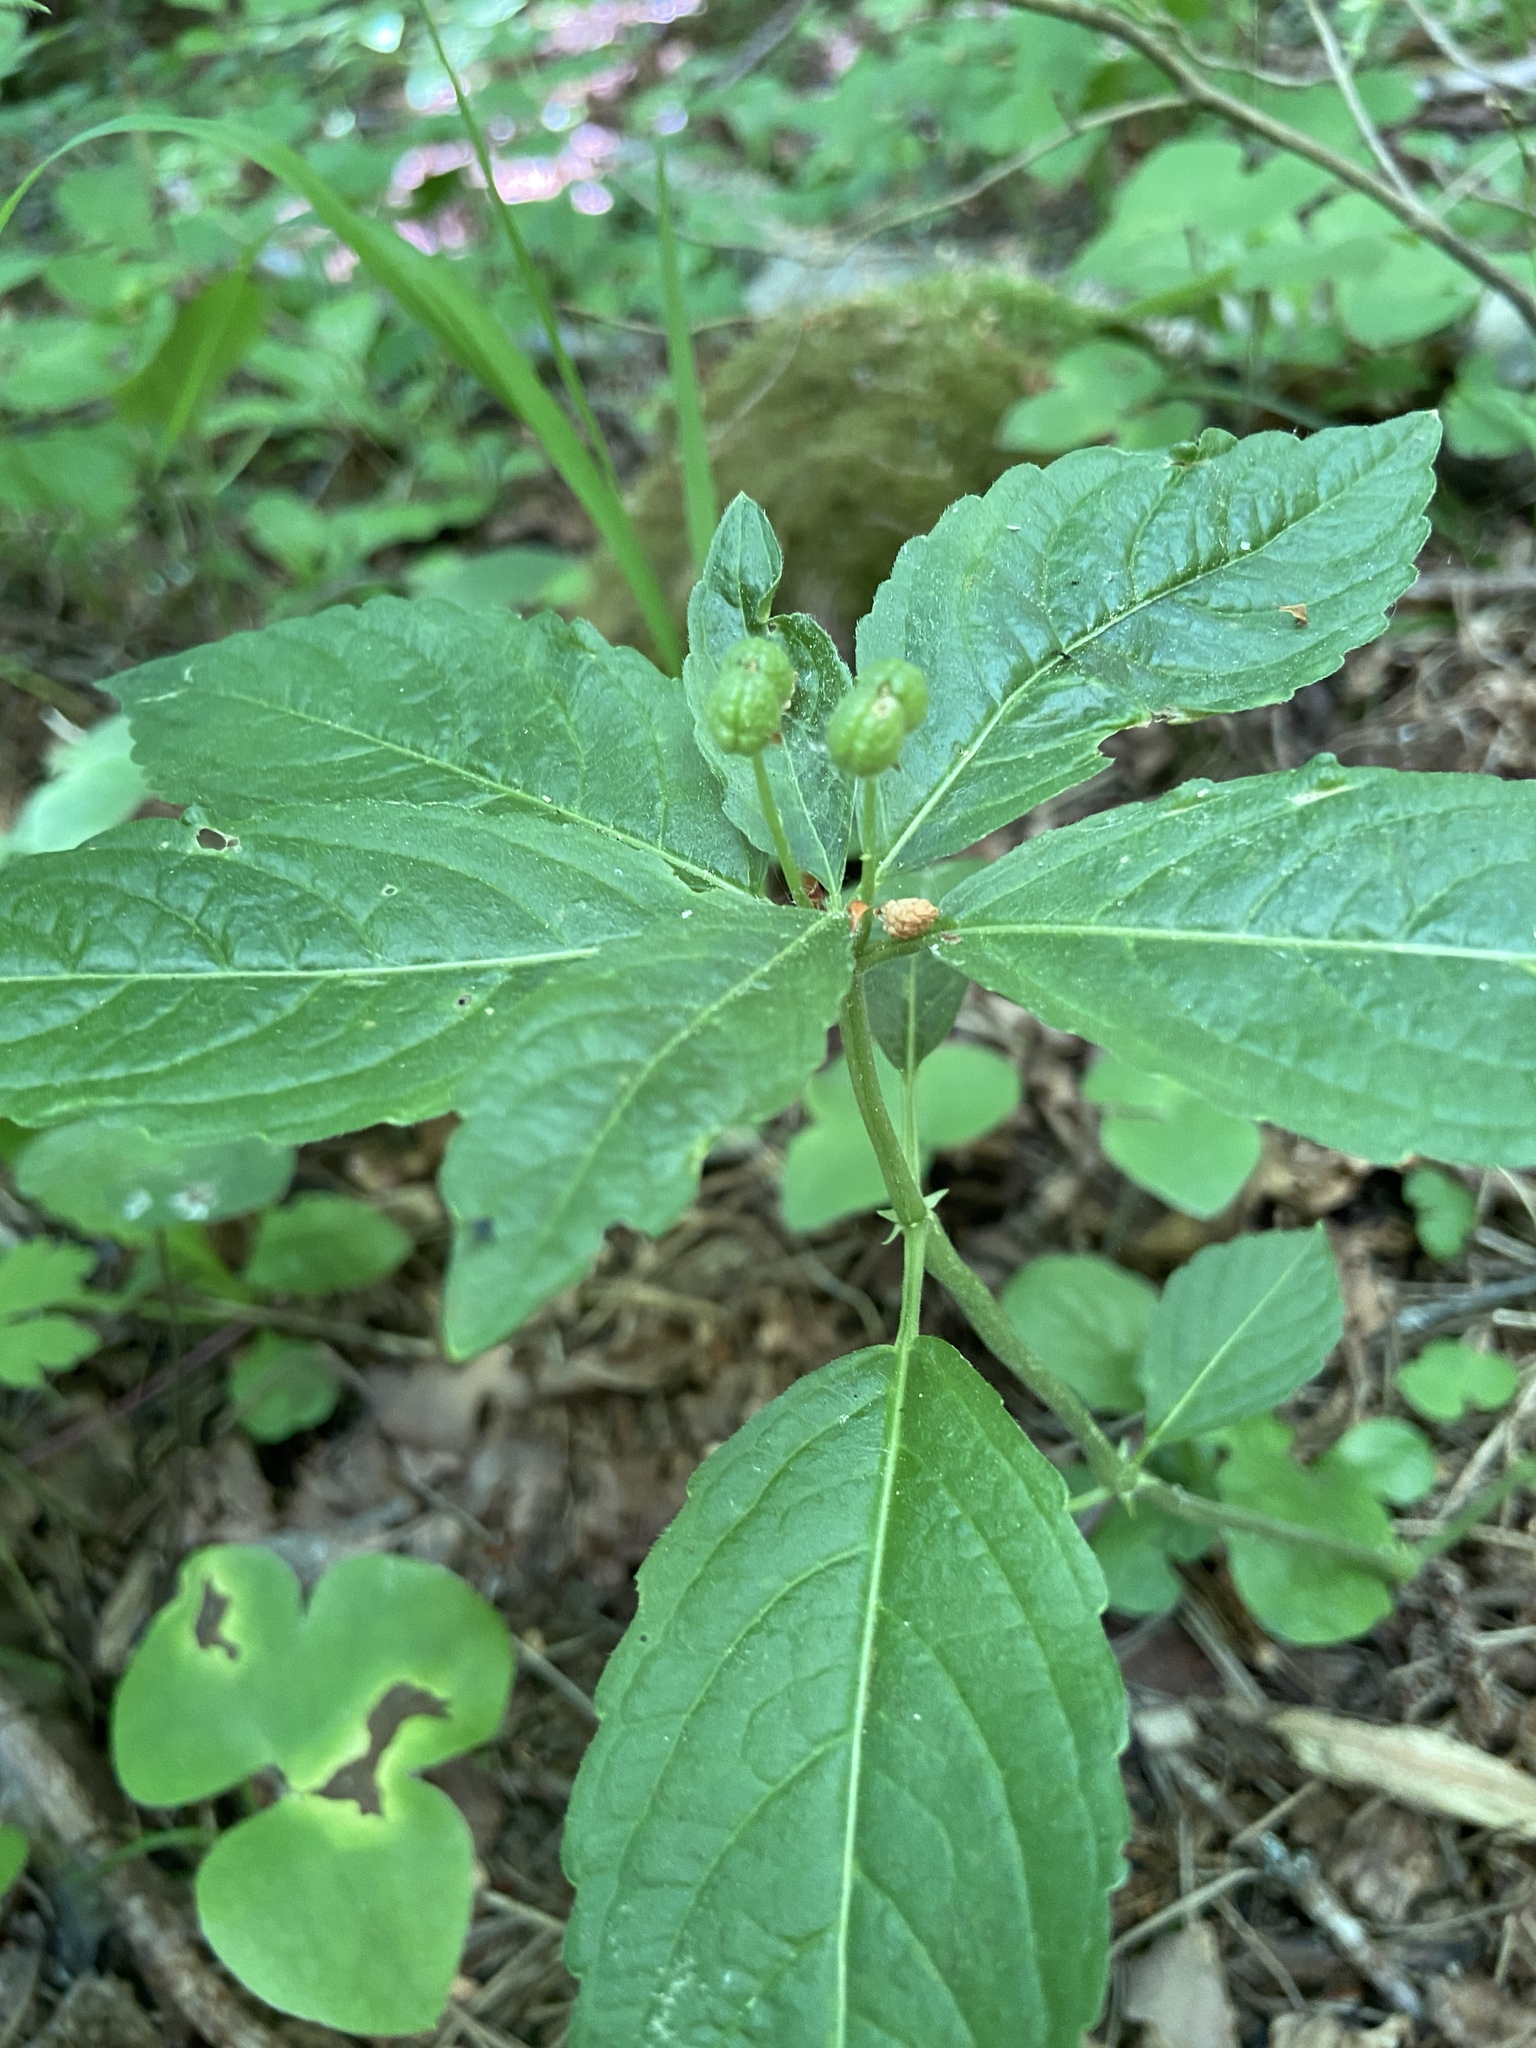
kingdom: Plantae
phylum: Tracheophyta
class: Magnoliopsida
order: Malpighiales
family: Euphorbiaceae
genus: Mercurialis
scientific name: Mercurialis perennis
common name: Dog mercury
